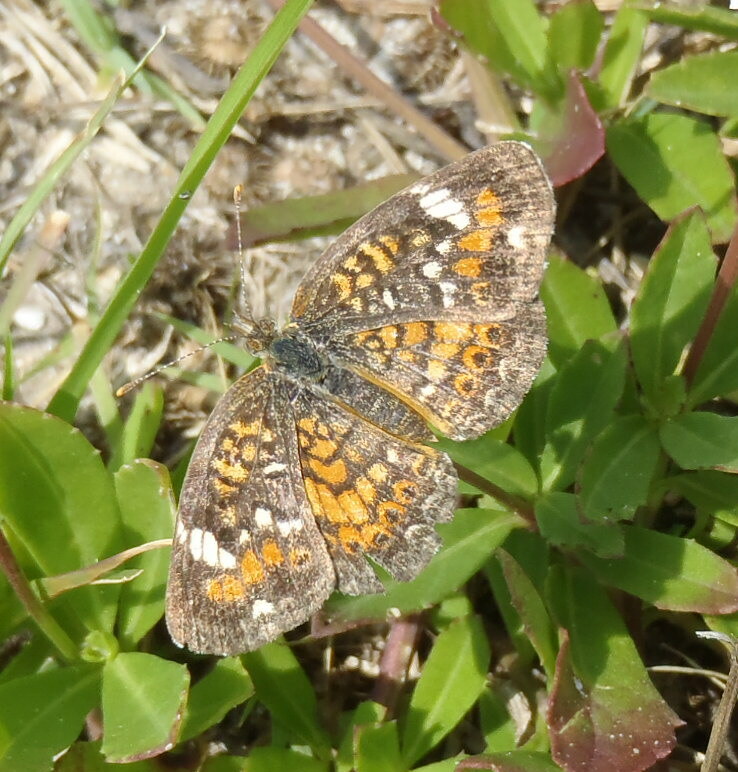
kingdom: Animalia
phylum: Arthropoda
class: Insecta
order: Lepidoptera
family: Nymphalidae
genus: Phyciodes
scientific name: Phyciodes phaon
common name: Phaon crescent
